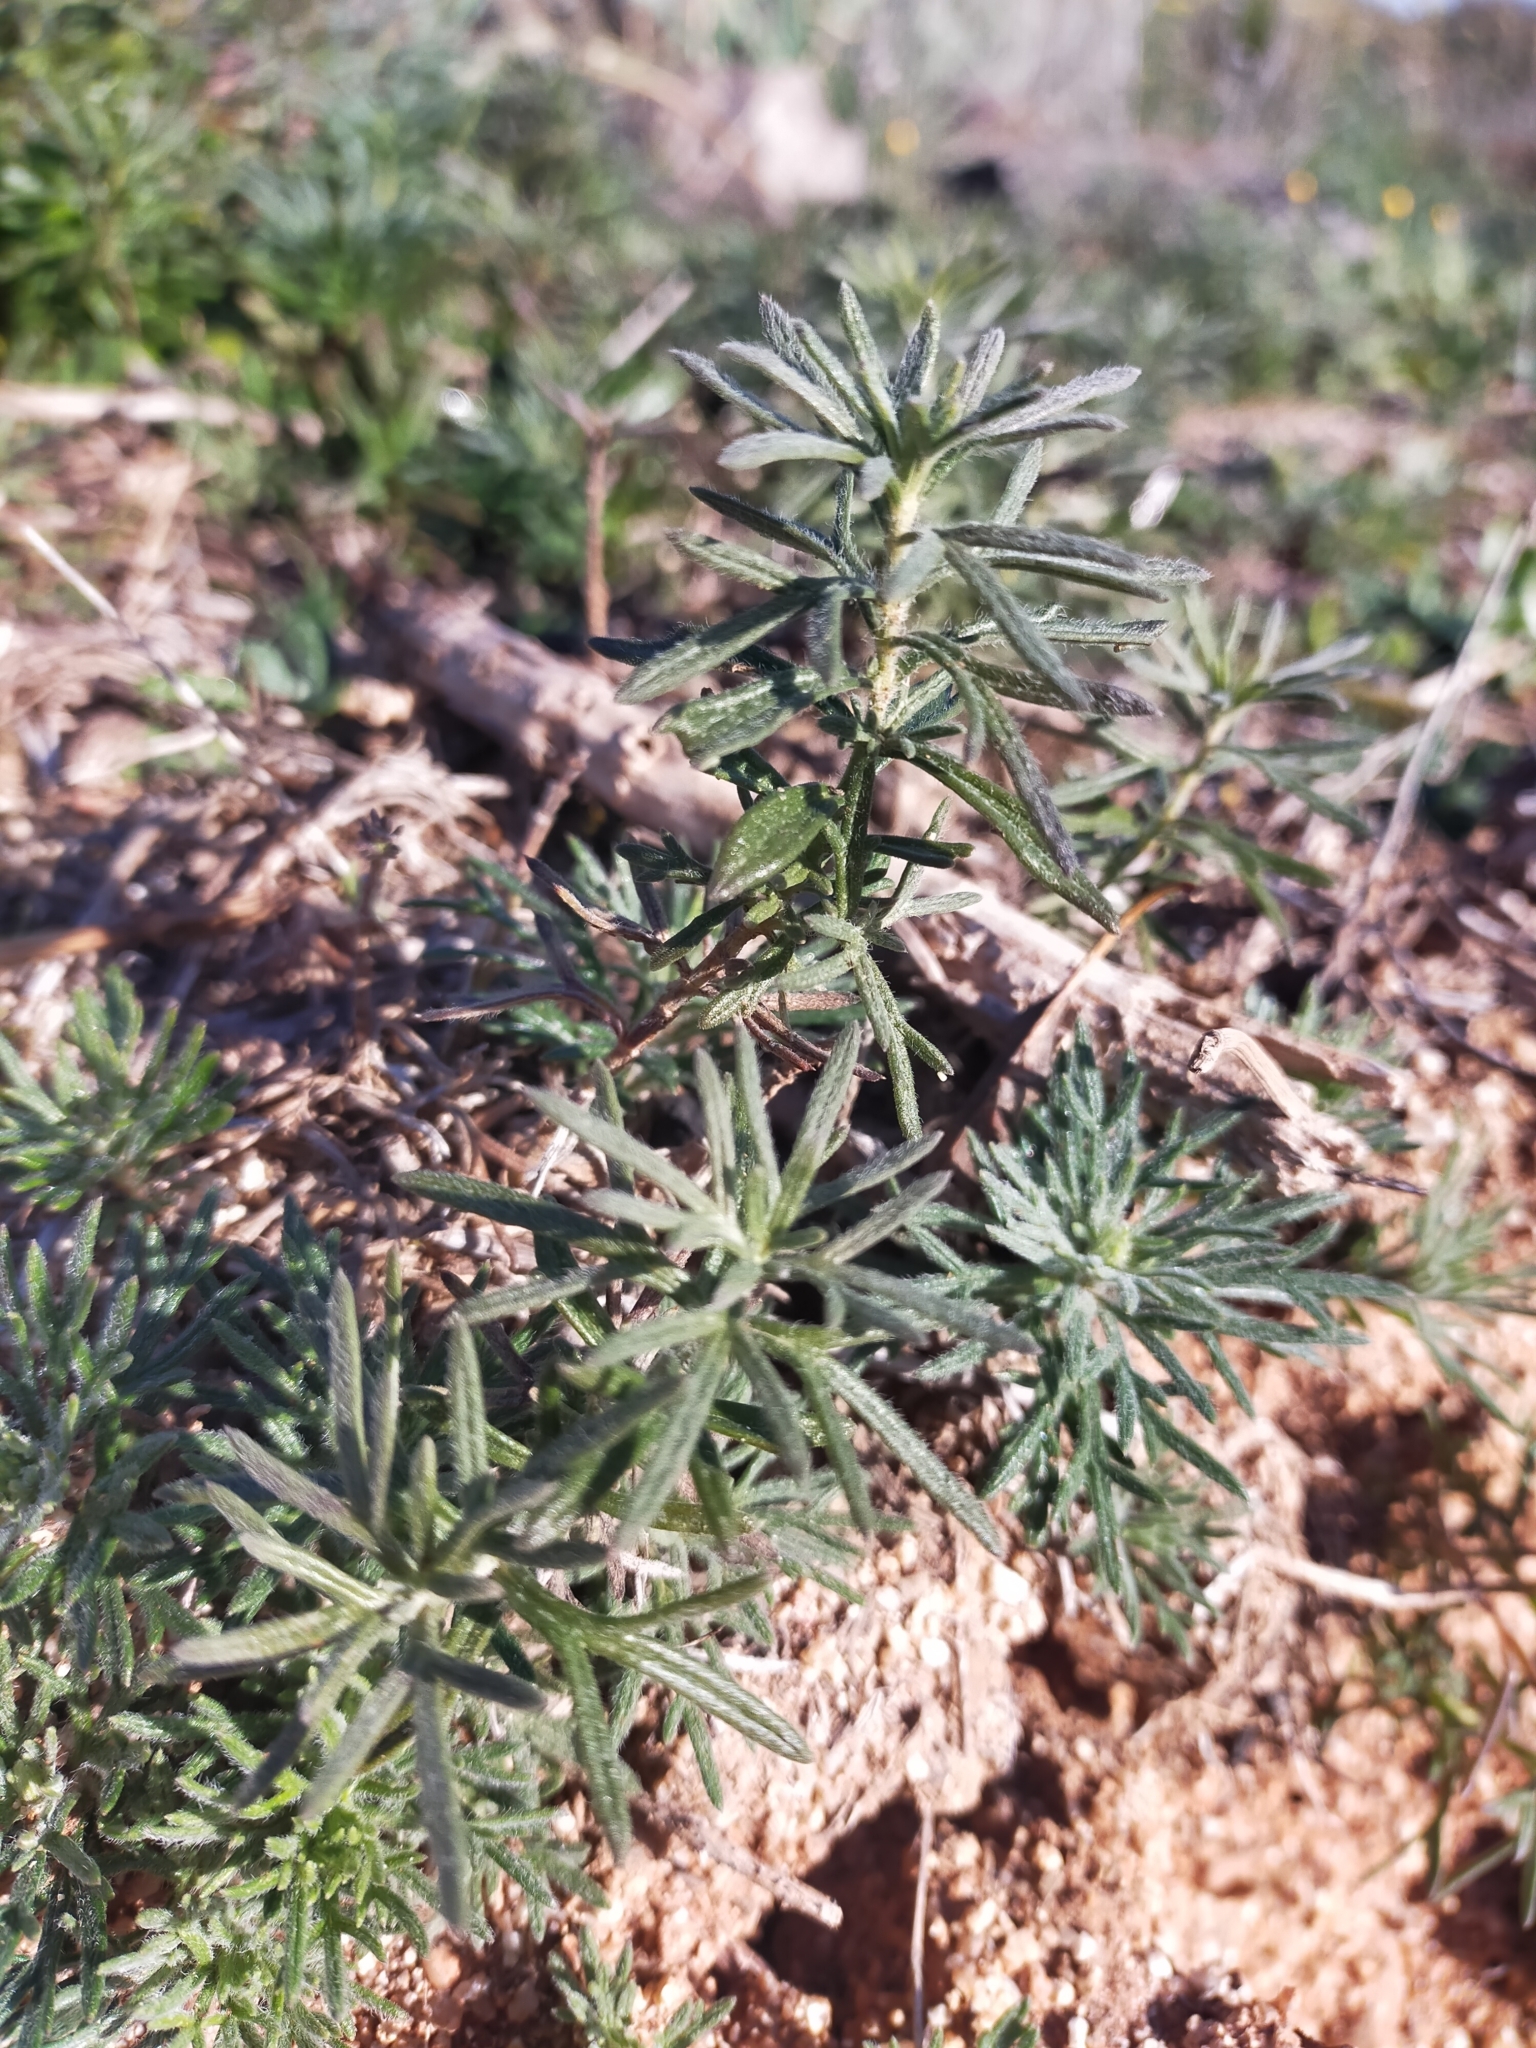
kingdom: Plantae
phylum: Tracheophyta
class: Magnoliopsida
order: Lamiales
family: Lamiaceae
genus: Teucrium
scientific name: Teucrium pseudochamaepitys
